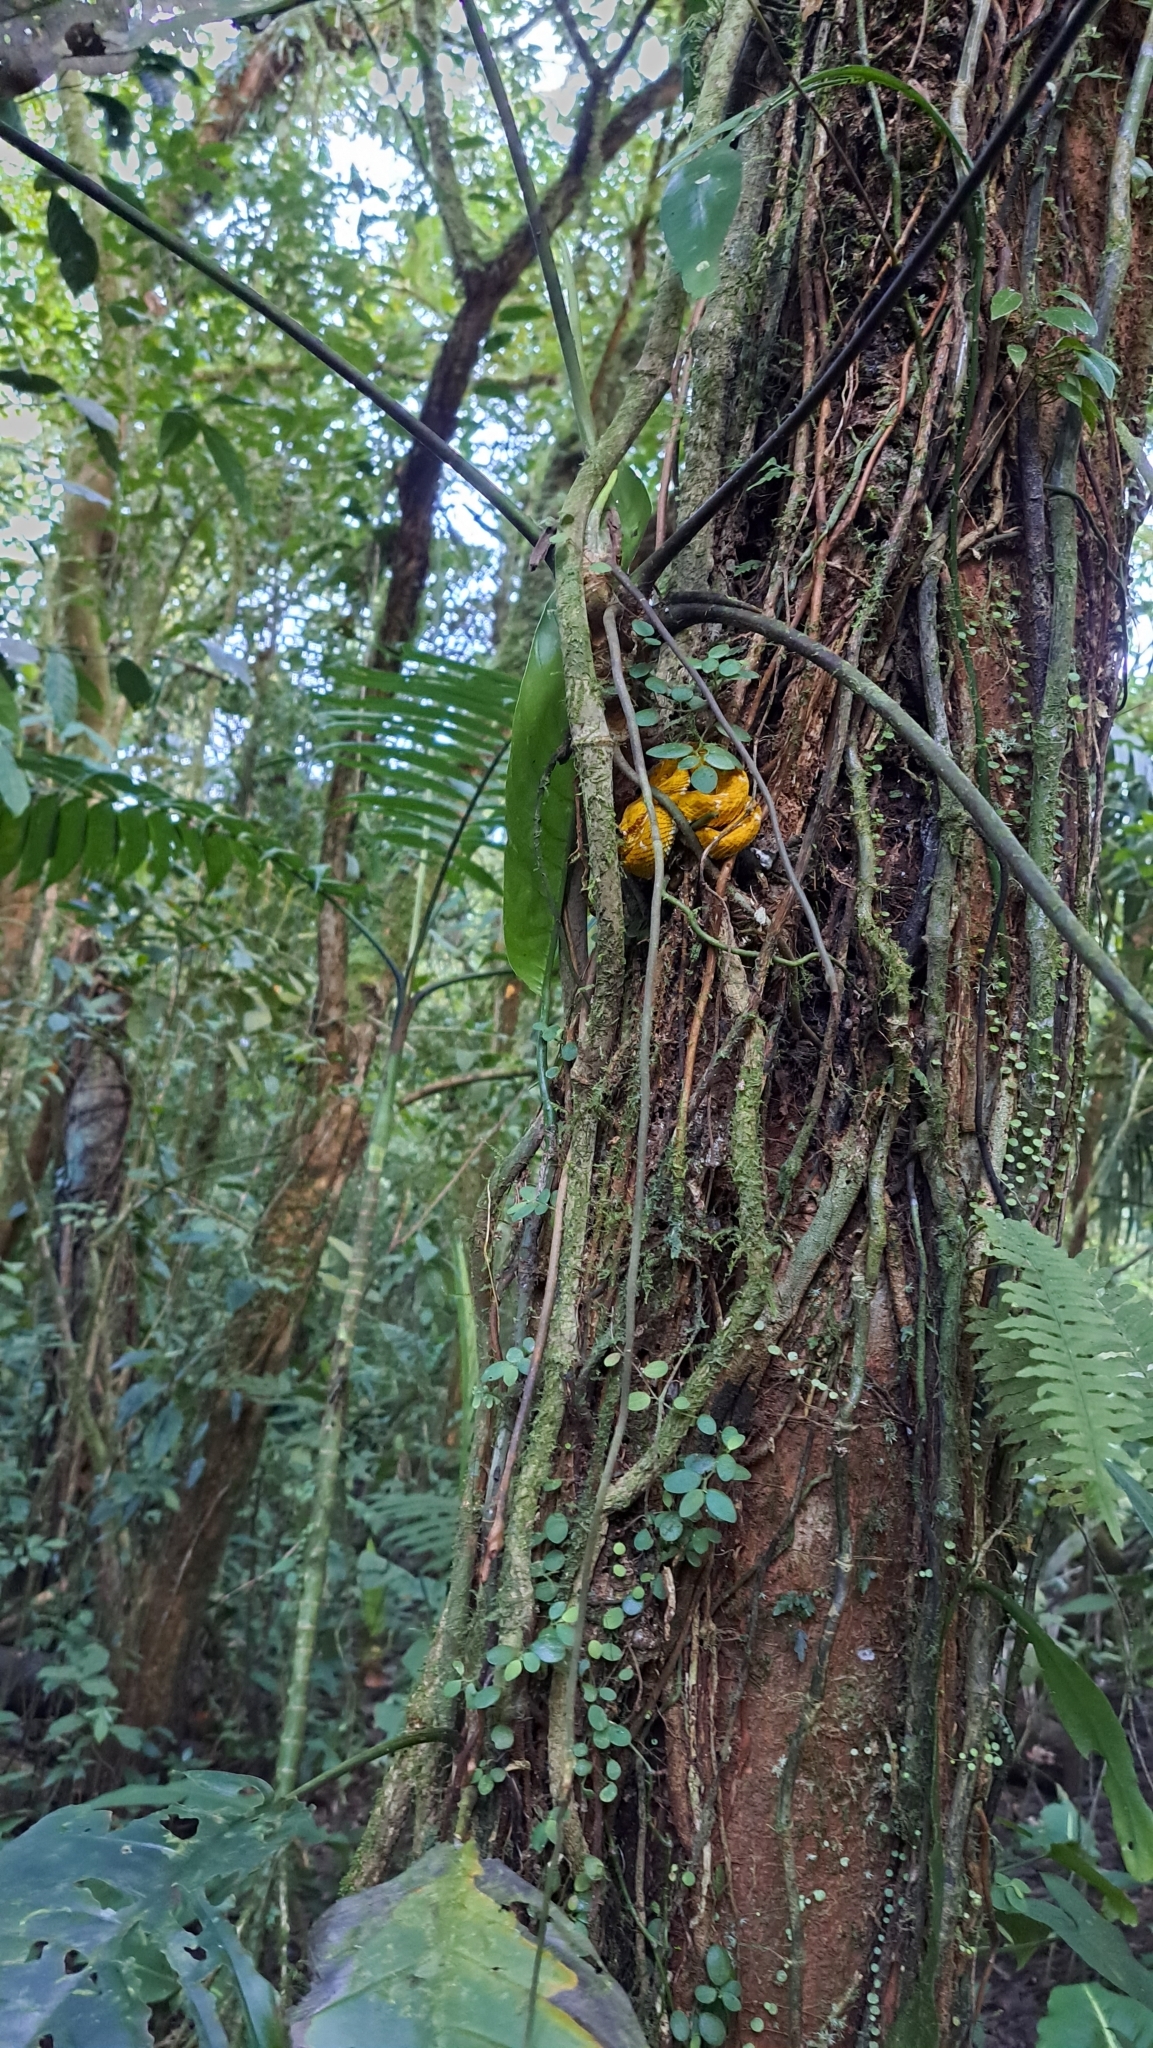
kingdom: Animalia
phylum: Chordata
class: Squamata
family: Viperidae
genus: Bothriechis
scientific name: Bothriechis schlegelii
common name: Eyelash viper
